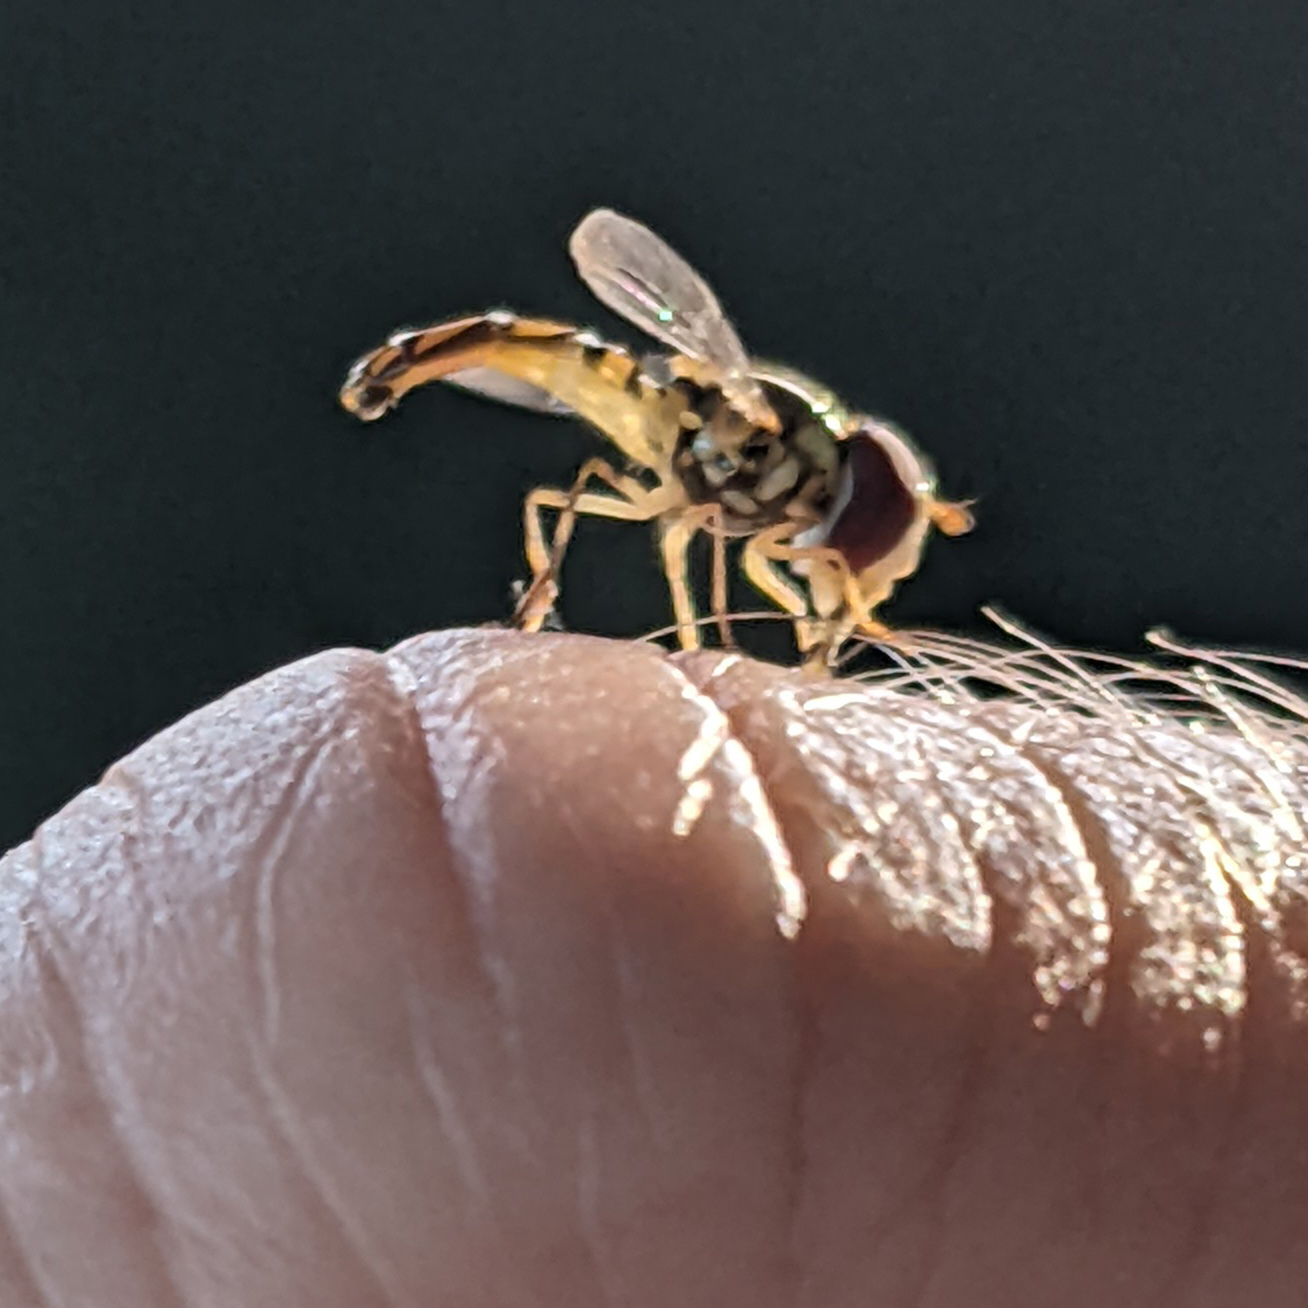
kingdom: Animalia
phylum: Arthropoda
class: Insecta
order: Diptera
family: Syrphidae
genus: Allograpta
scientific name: Allograpta obliqua
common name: Common oblique syrphid
